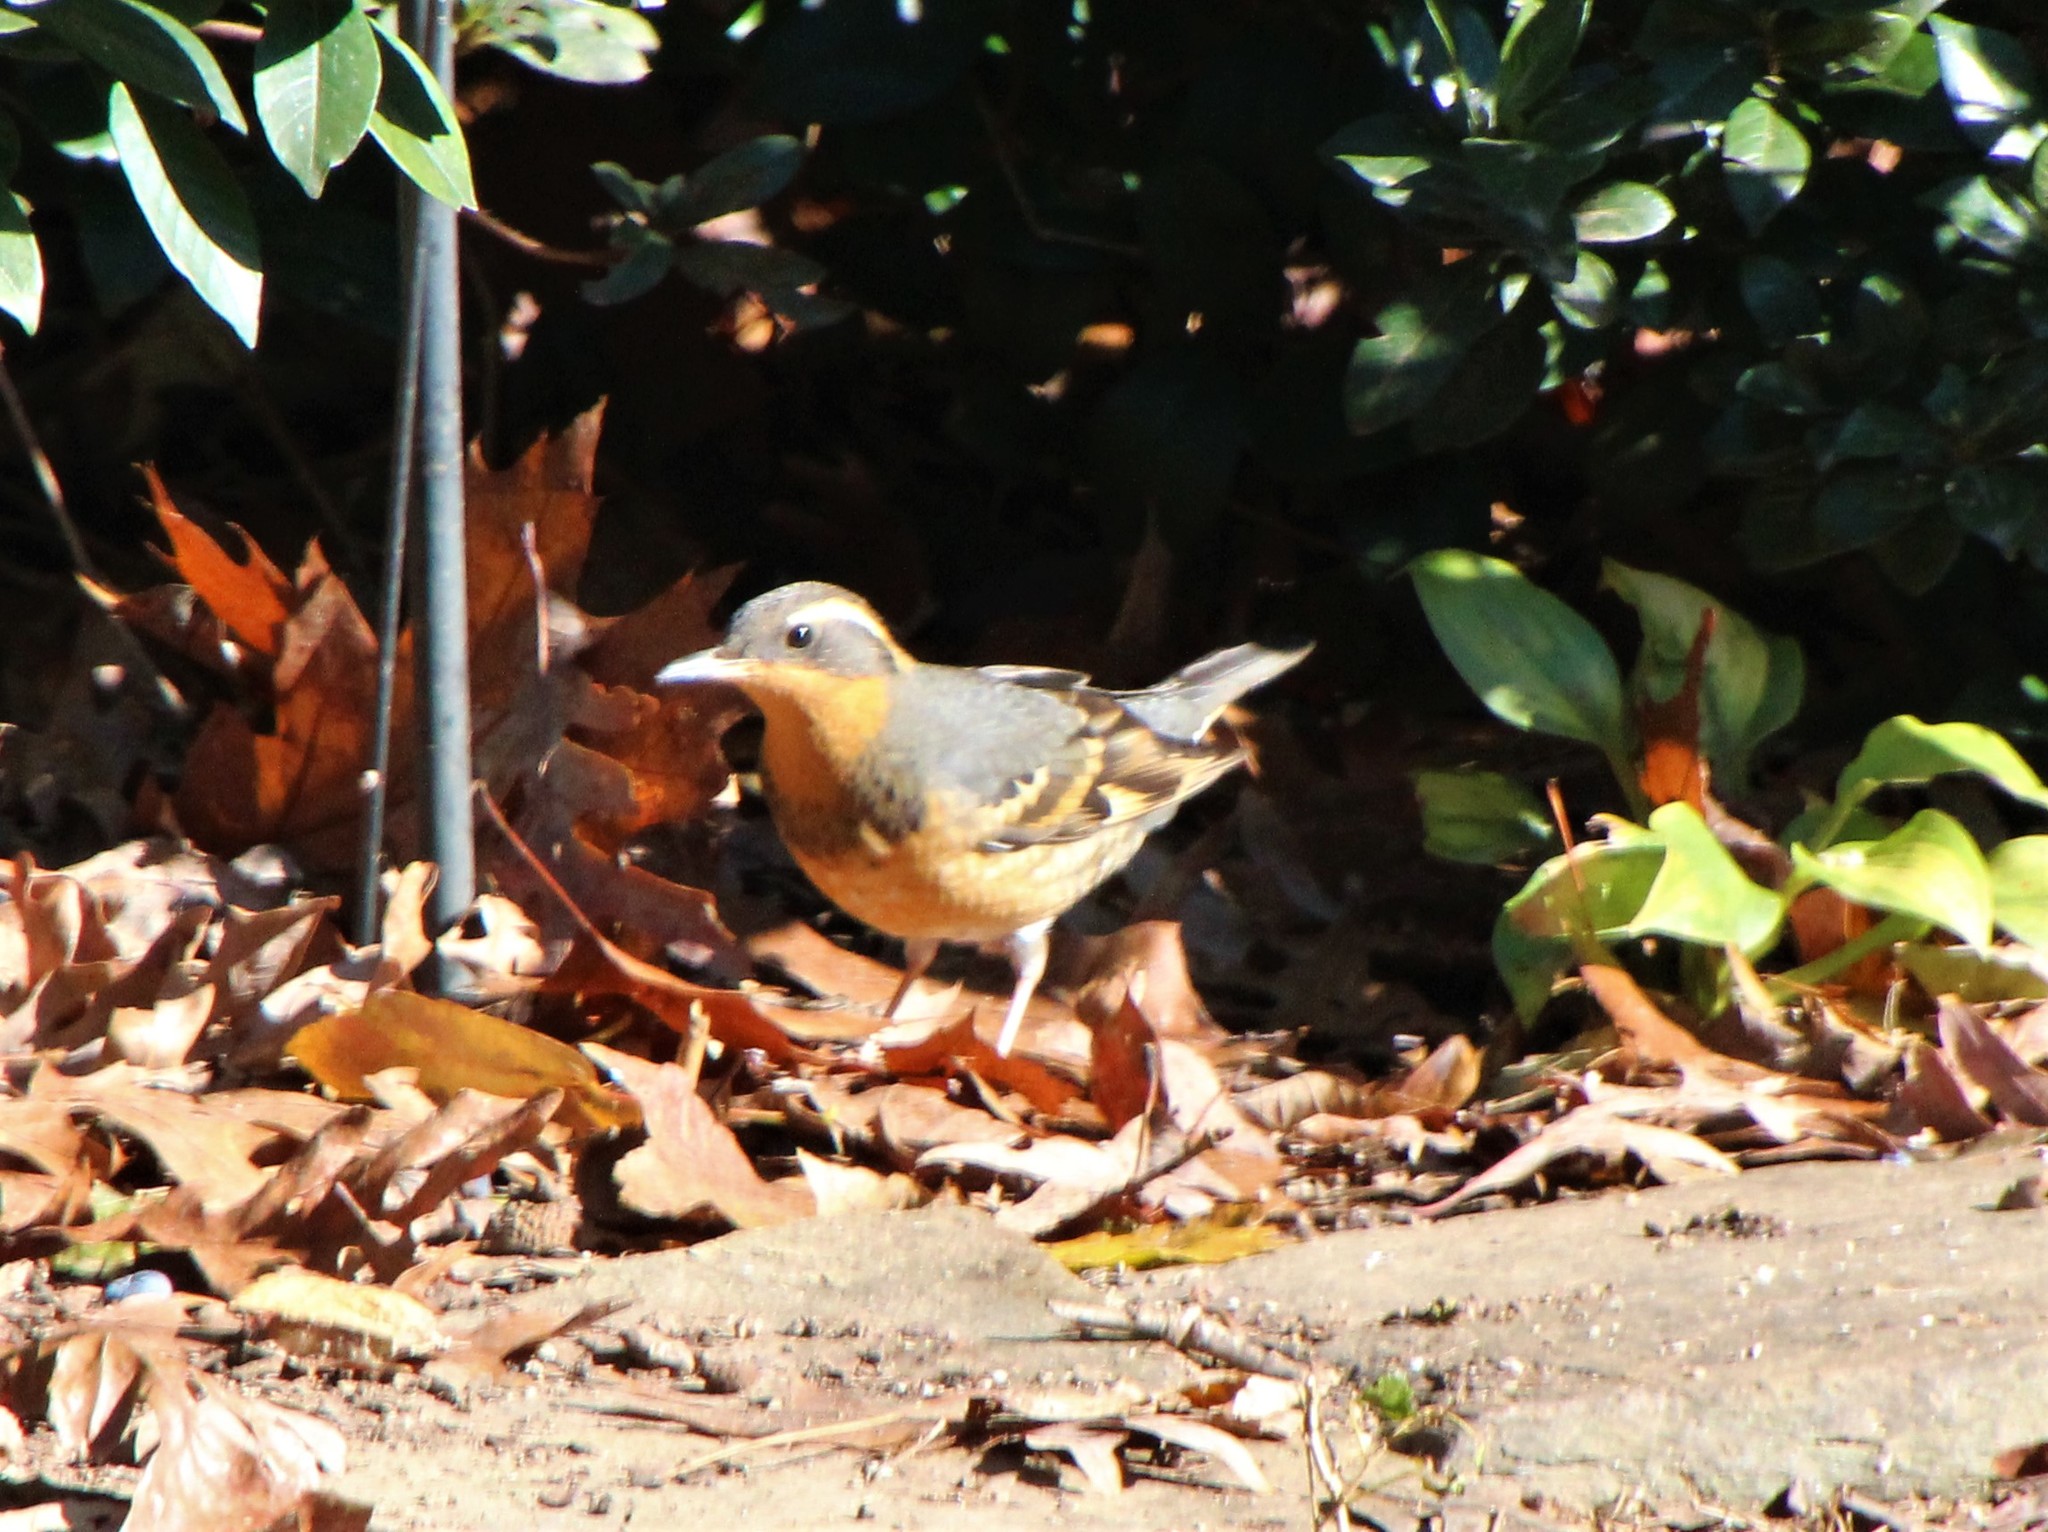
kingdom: Animalia
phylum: Chordata
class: Aves
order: Passeriformes
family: Turdidae
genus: Ixoreus
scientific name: Ixoreus naevius
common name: Varied thrush
